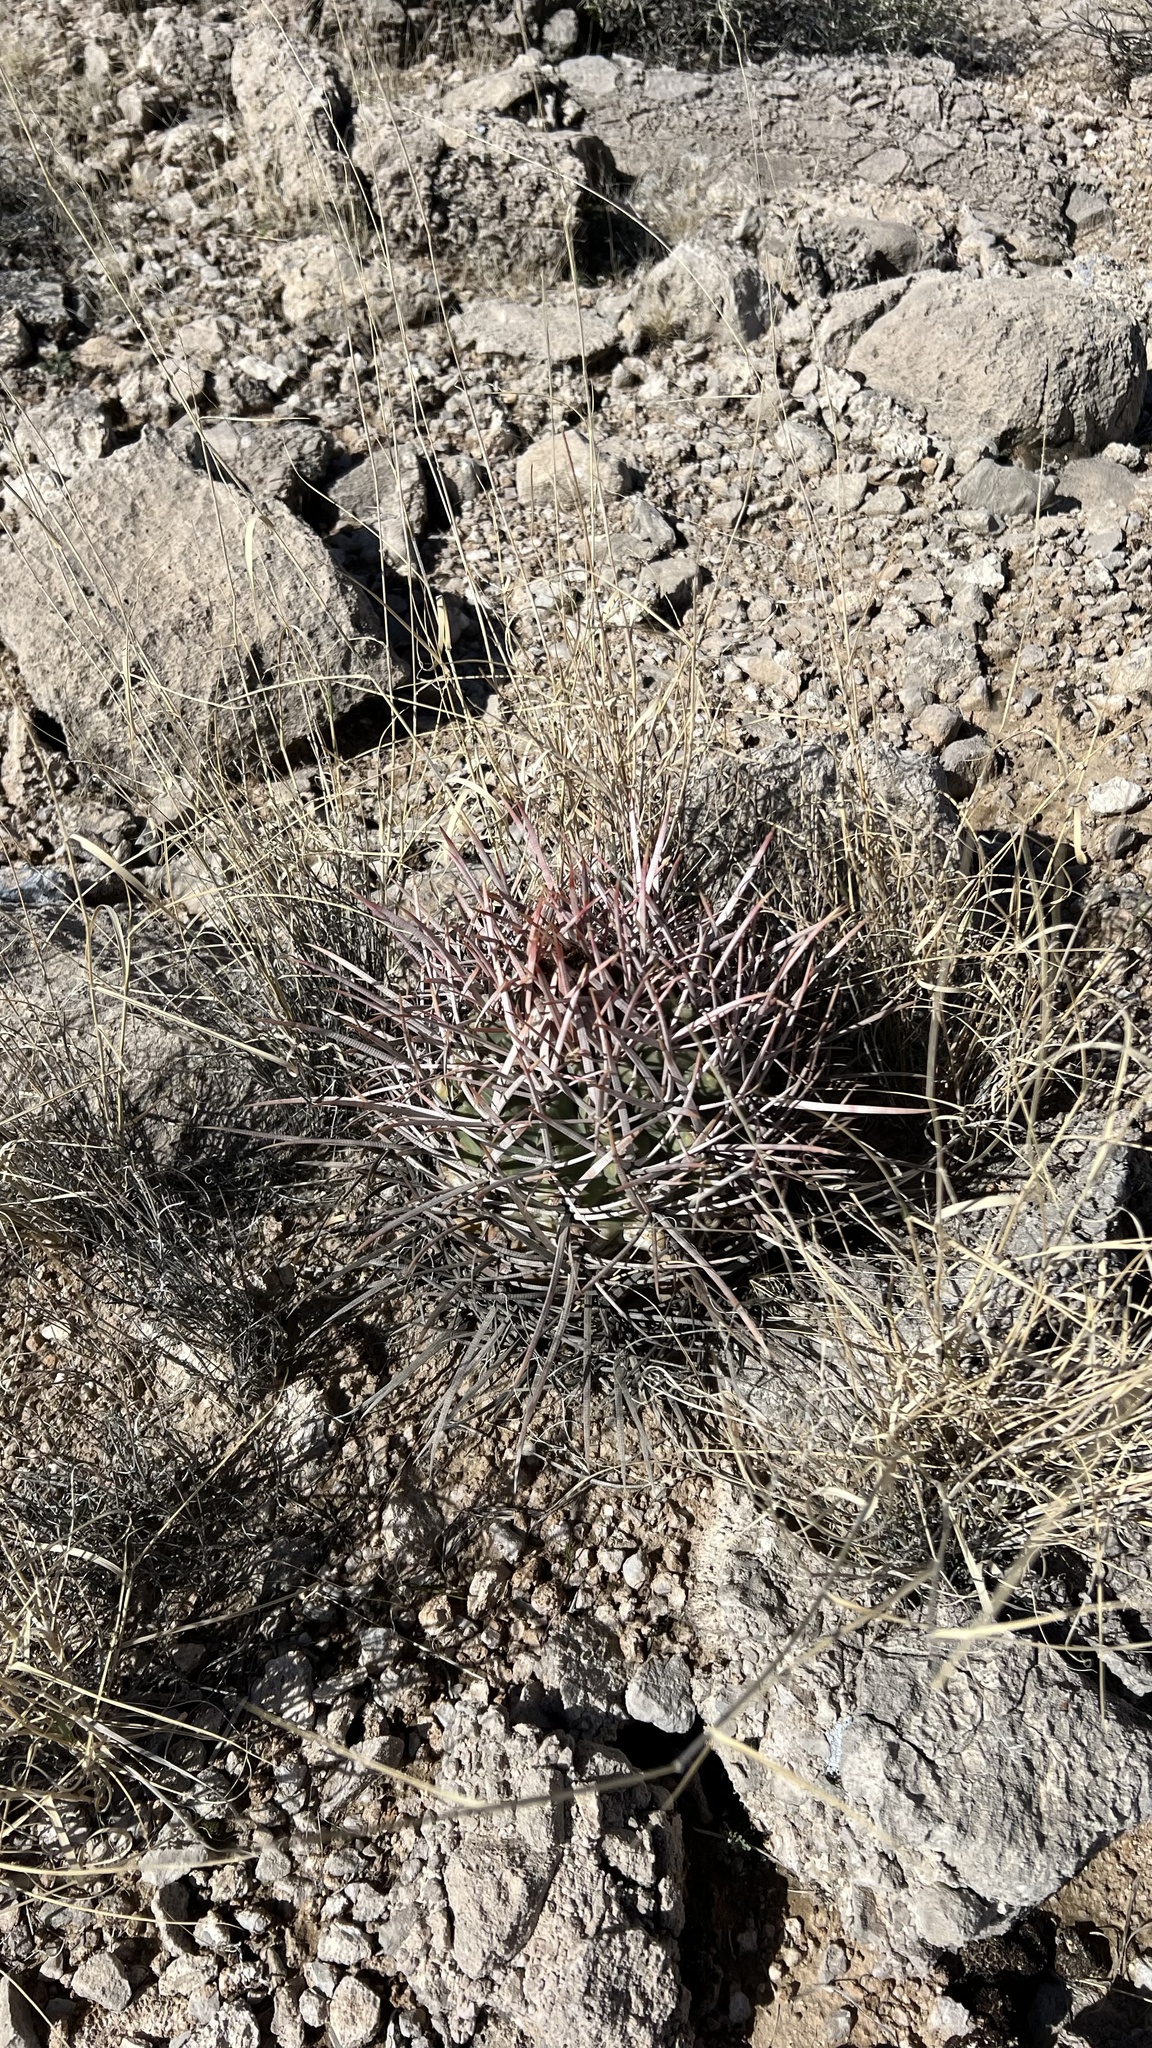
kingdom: Plantae
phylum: Tracheophyta
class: Magnoliopsida
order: Caryophyllales
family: Cactaceae
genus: Echinocactus
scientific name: Echinocactus polycephalus
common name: Cottontop cactus
